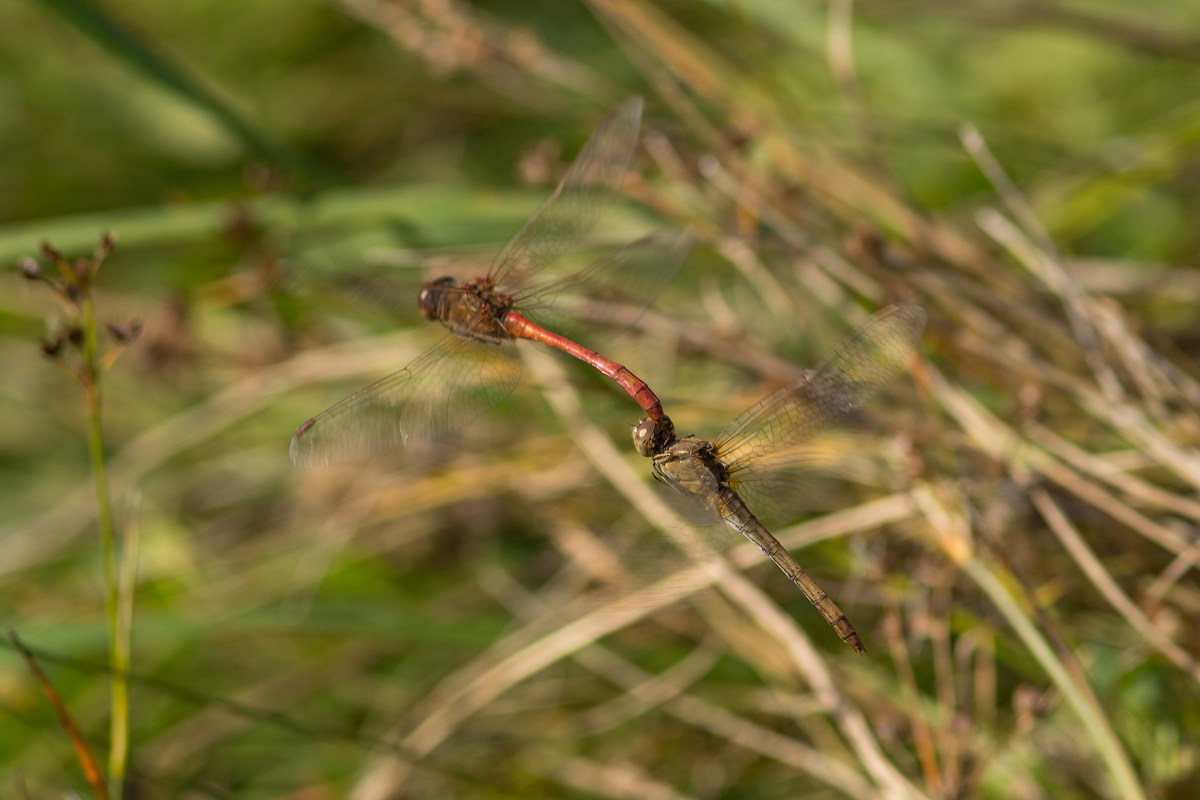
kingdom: Animalia
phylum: Arthropoda
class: Insecta
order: Odonata
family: Libellulidae
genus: Sympetrum
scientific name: Sympetrum meridionale
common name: Southern darter
